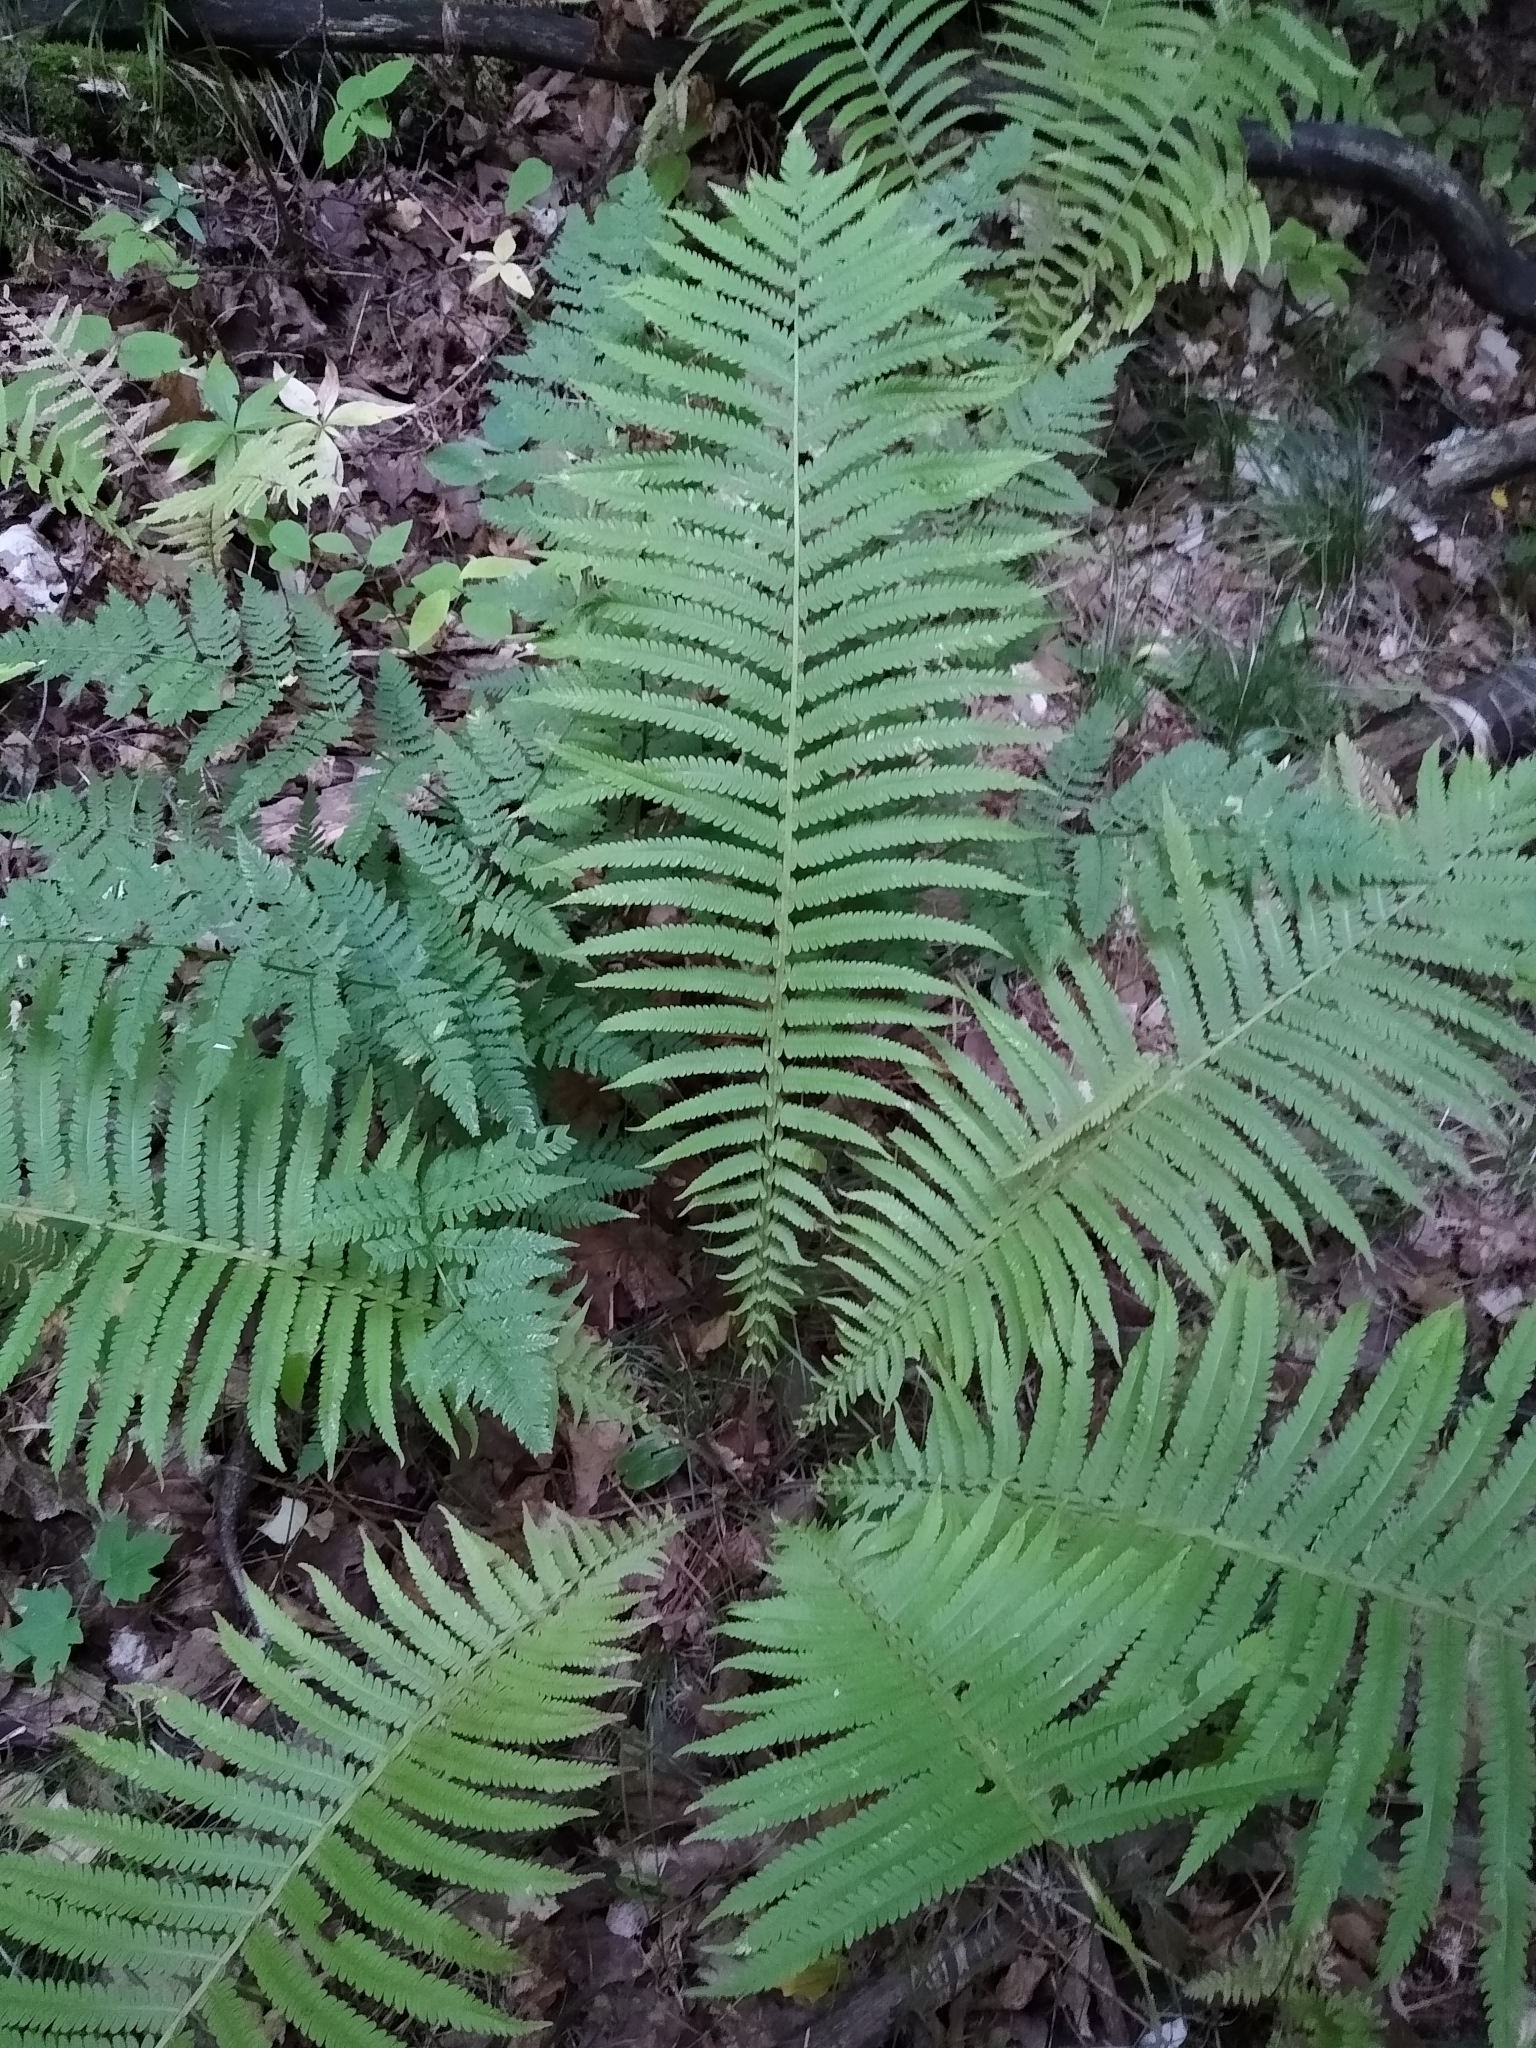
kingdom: Plantae
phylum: Tracheophyta
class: Polypodiopsida
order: Polypodiales
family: Onocleaceae
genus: Matteuccia
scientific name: Matteuccia struthiopteris
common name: Ostrich fern
